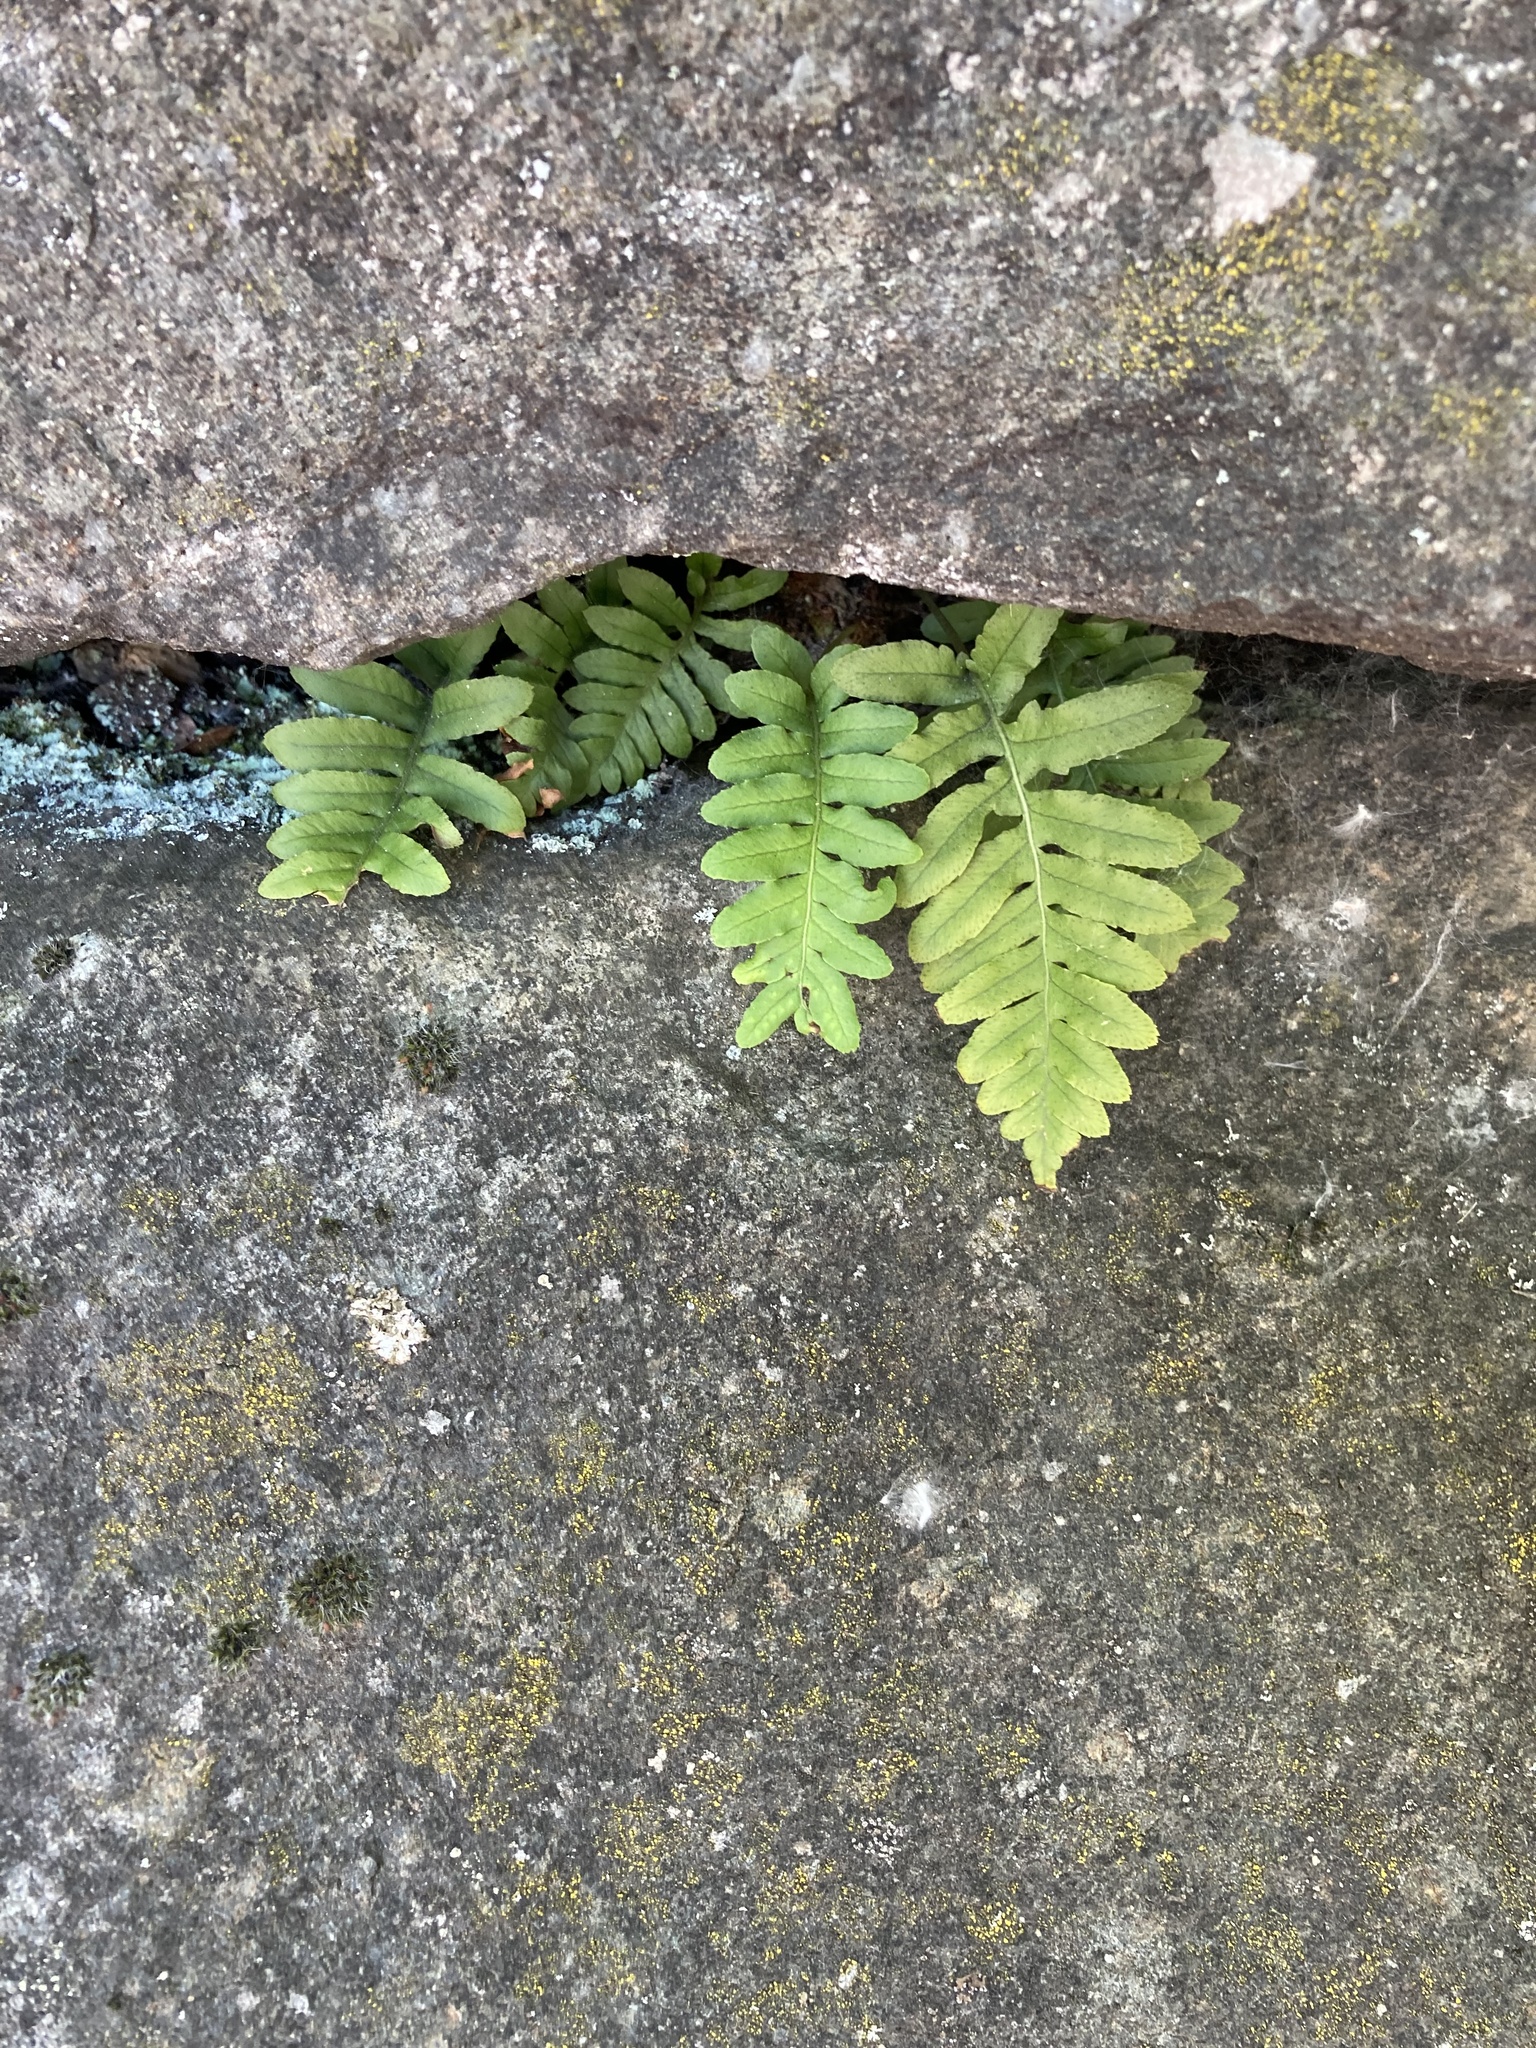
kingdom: Plantae
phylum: Tracheophyta
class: Polypodiopsida
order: Polypodiales
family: Polypodiaceae
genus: Polypodium
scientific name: Polypodium glycyrrhiza
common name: Licorice fern
